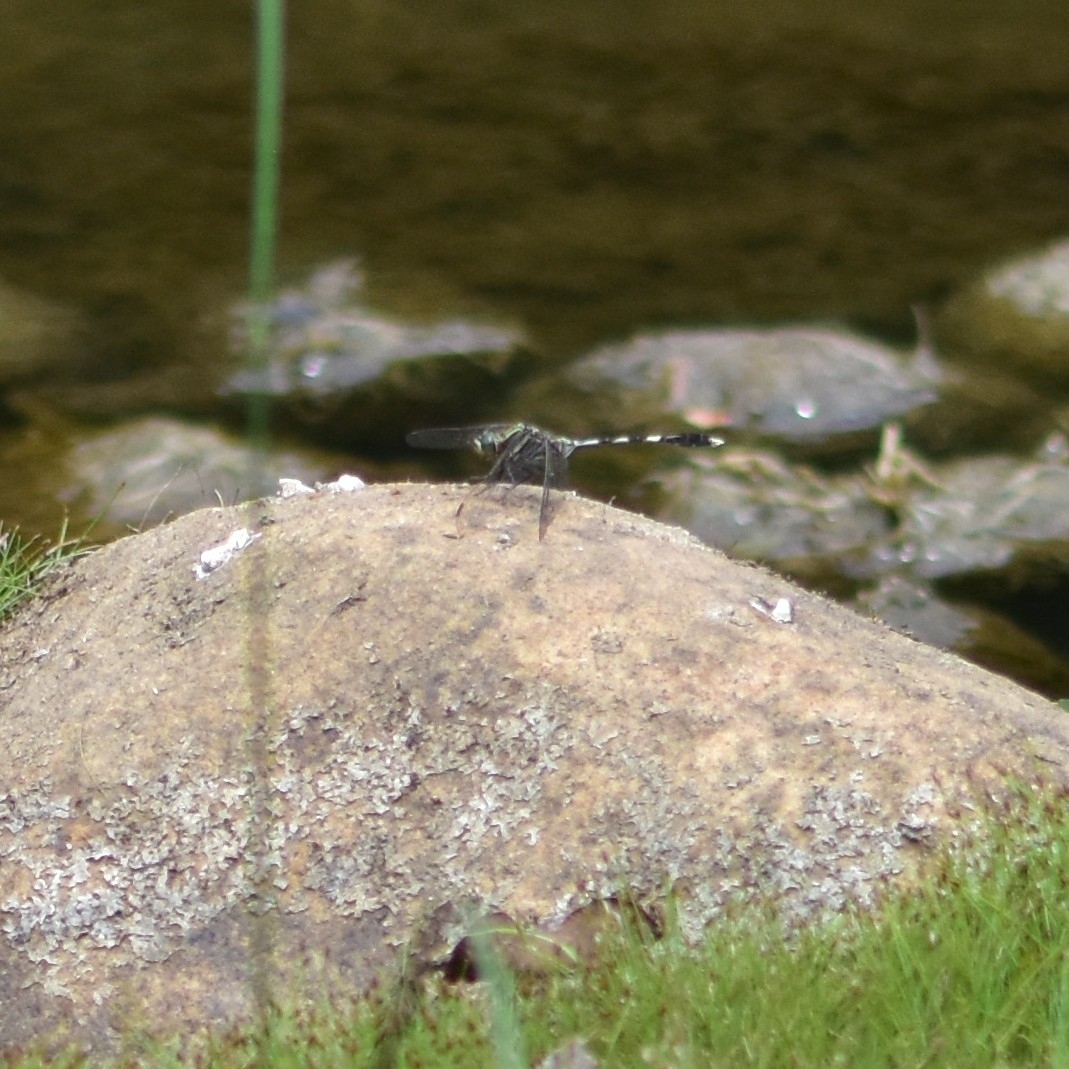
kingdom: Animalia
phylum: Arthropoda
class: Insecta
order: Odonata
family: Libellulidae
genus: Orthetrum
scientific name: Orthetrum sabina
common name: Slender skimmer
